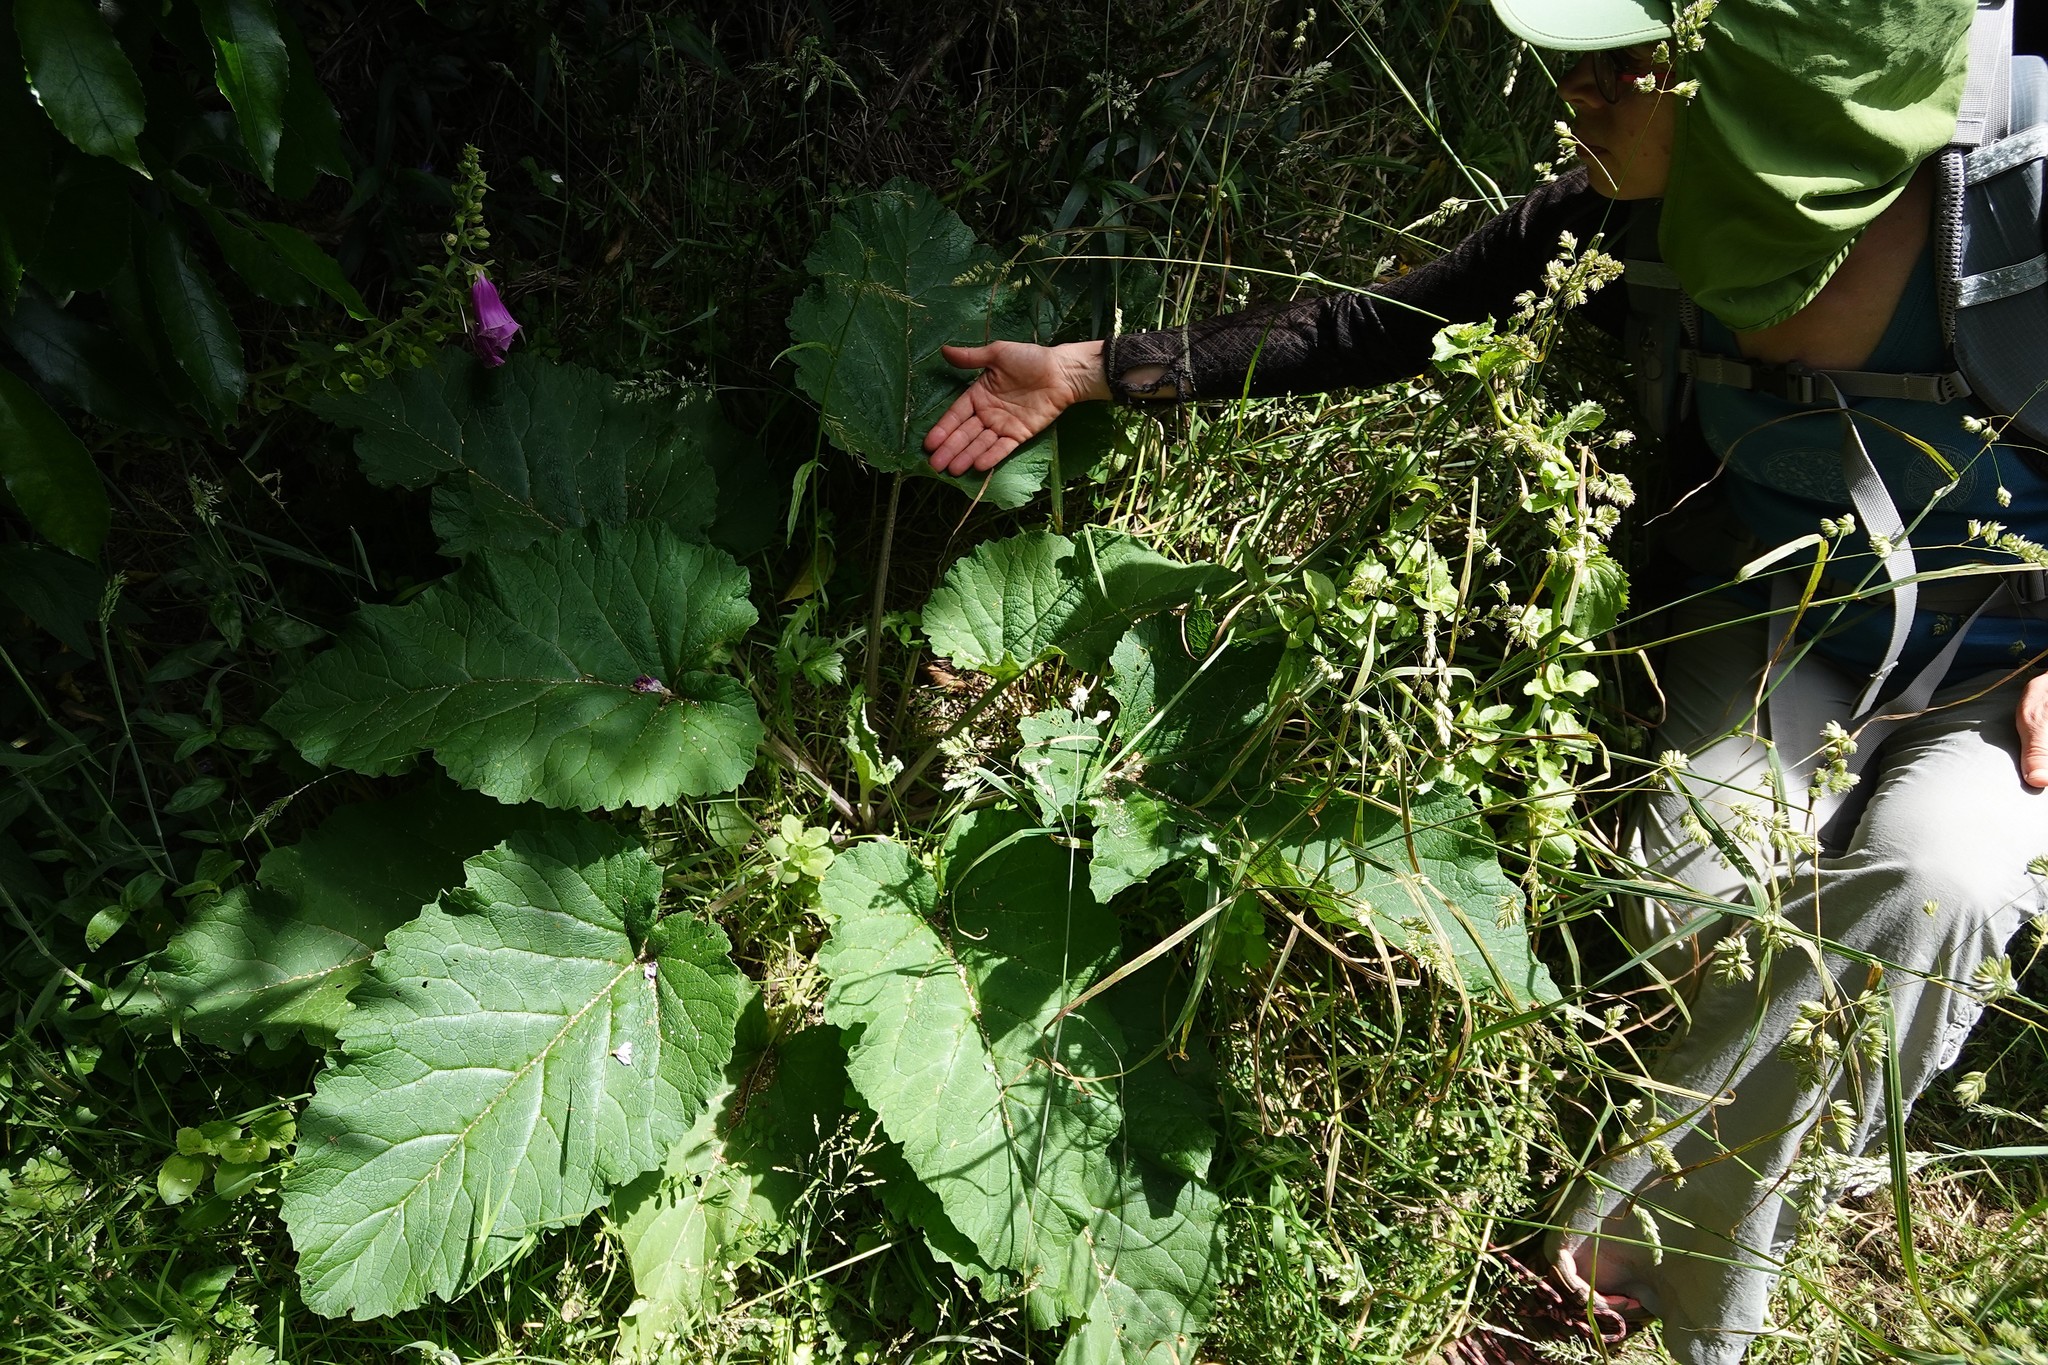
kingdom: Plantae
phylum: Tracheophyta
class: Magnoliopsida
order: Asterales
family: Asteraceae
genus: Arctium
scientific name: Arctium minus
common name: Lesser burdock
